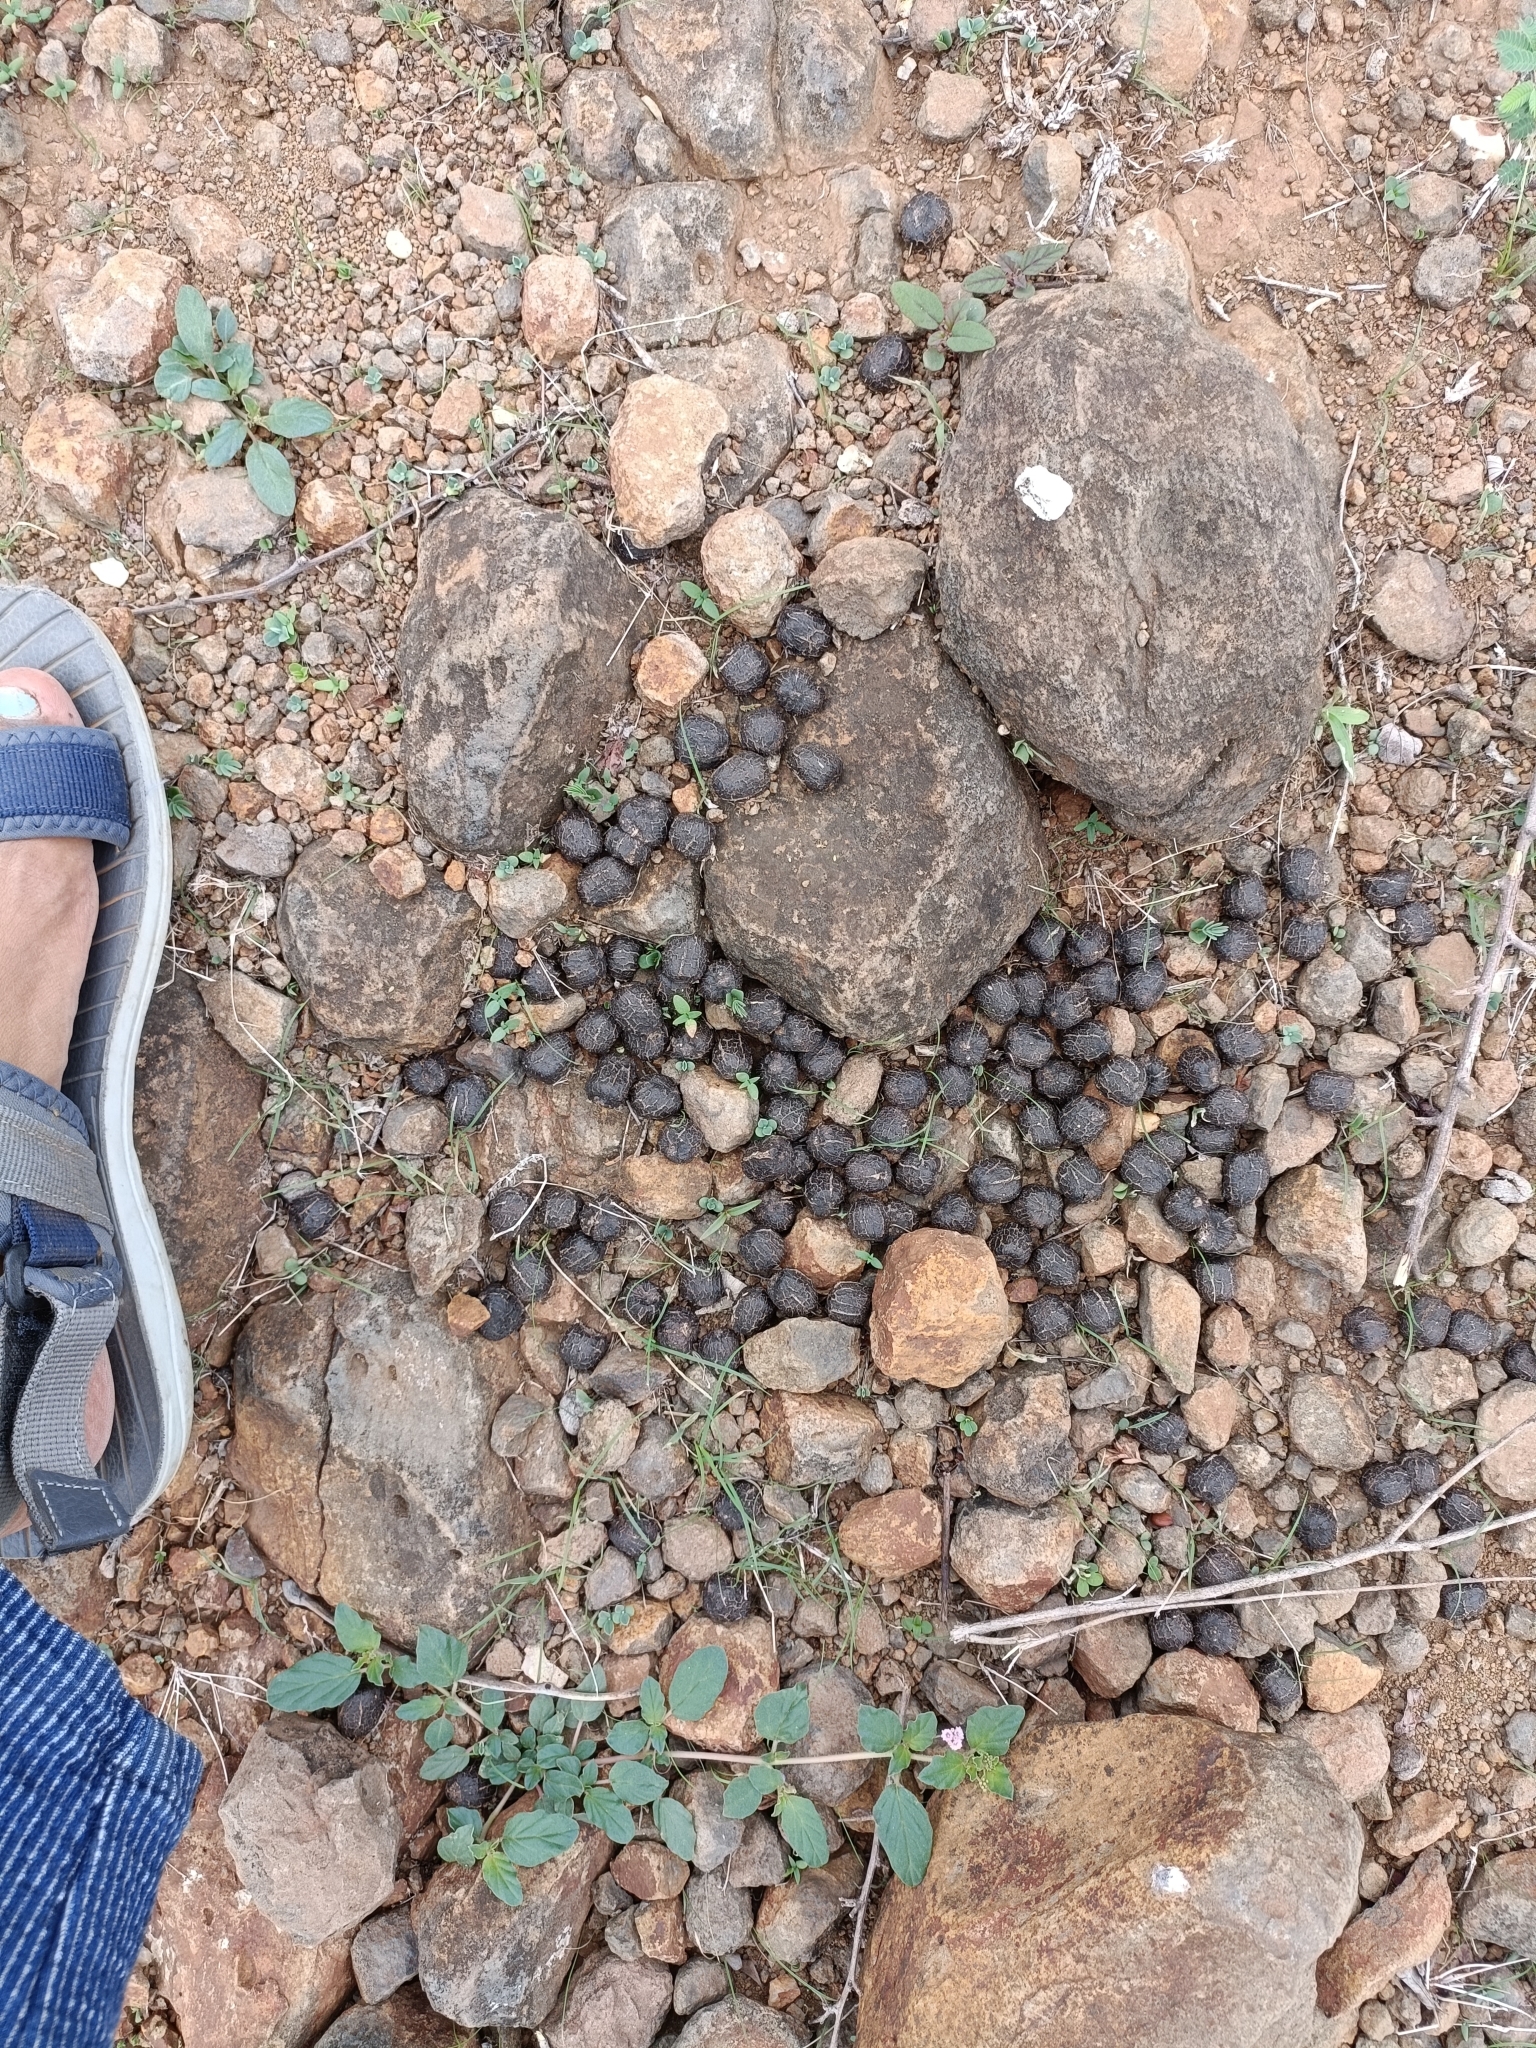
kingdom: Animalia
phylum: Chordata
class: Mammalia
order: Artiodactyla
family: Bovidae
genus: Boselaphus
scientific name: Boselaphus tragocamelus
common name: Nilgai
